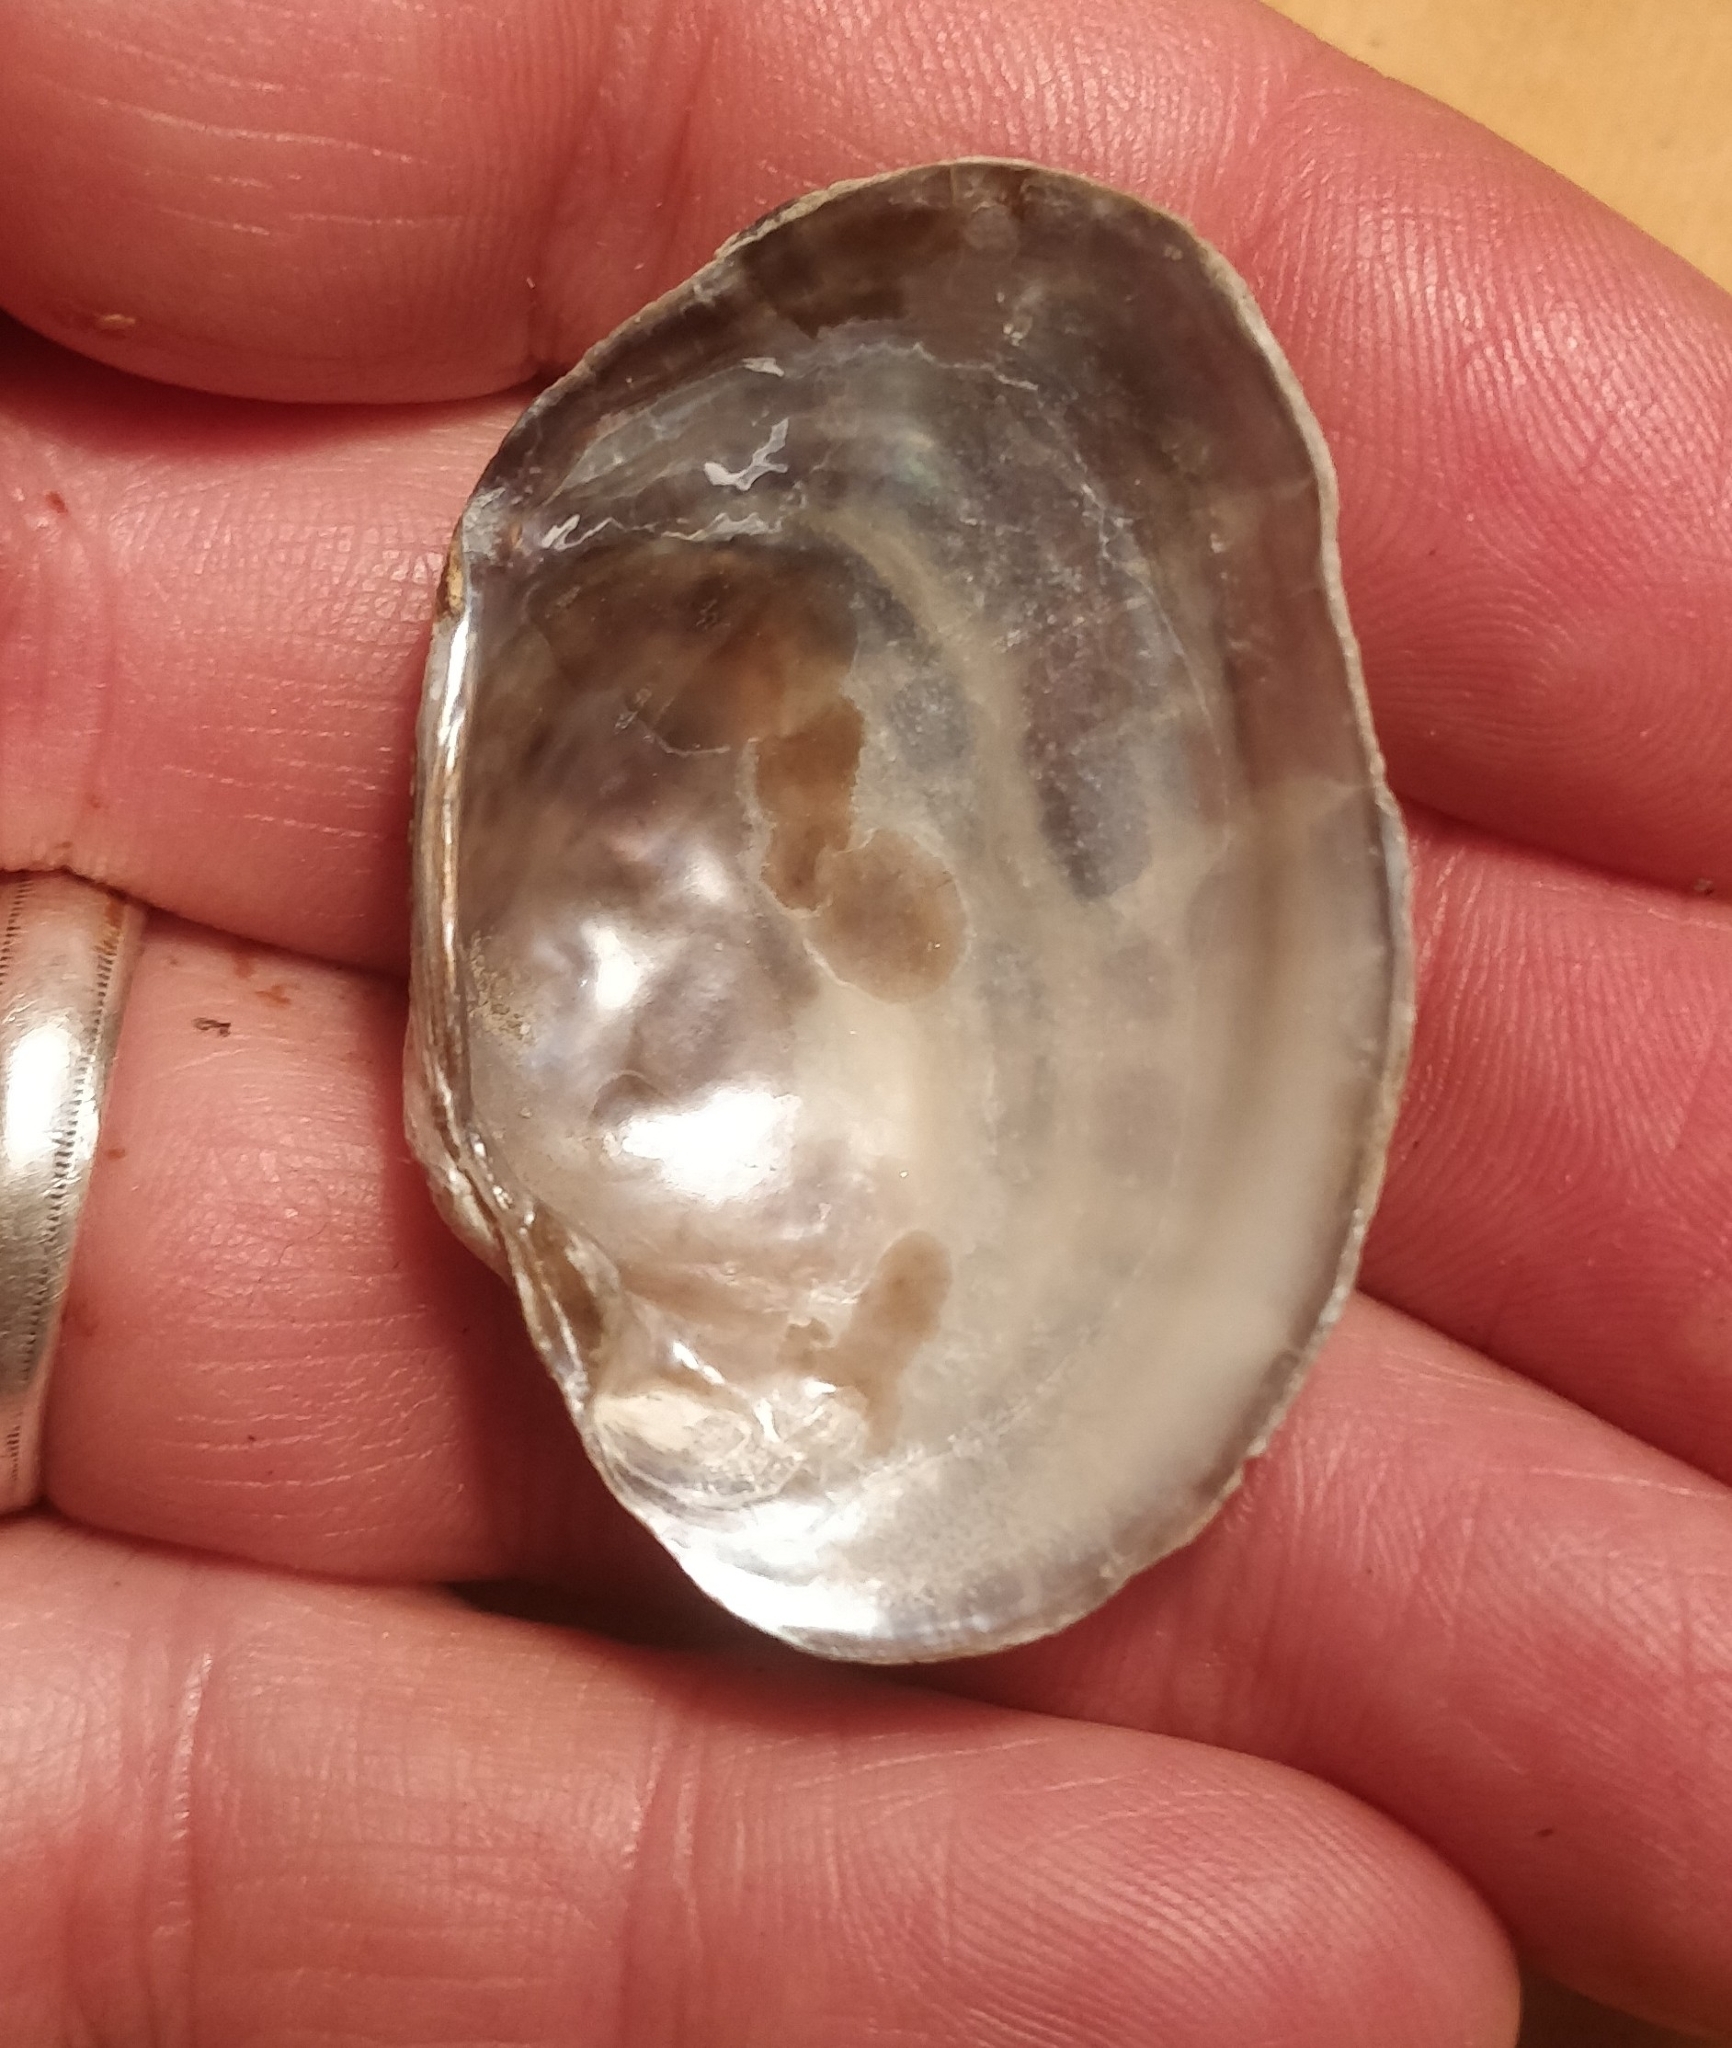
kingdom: Animalia
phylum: Mollusca
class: Bivalvia
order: Unionida
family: Unionidae
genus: Arcidens
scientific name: Arcidens confragosus
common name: Rock pocketbook
